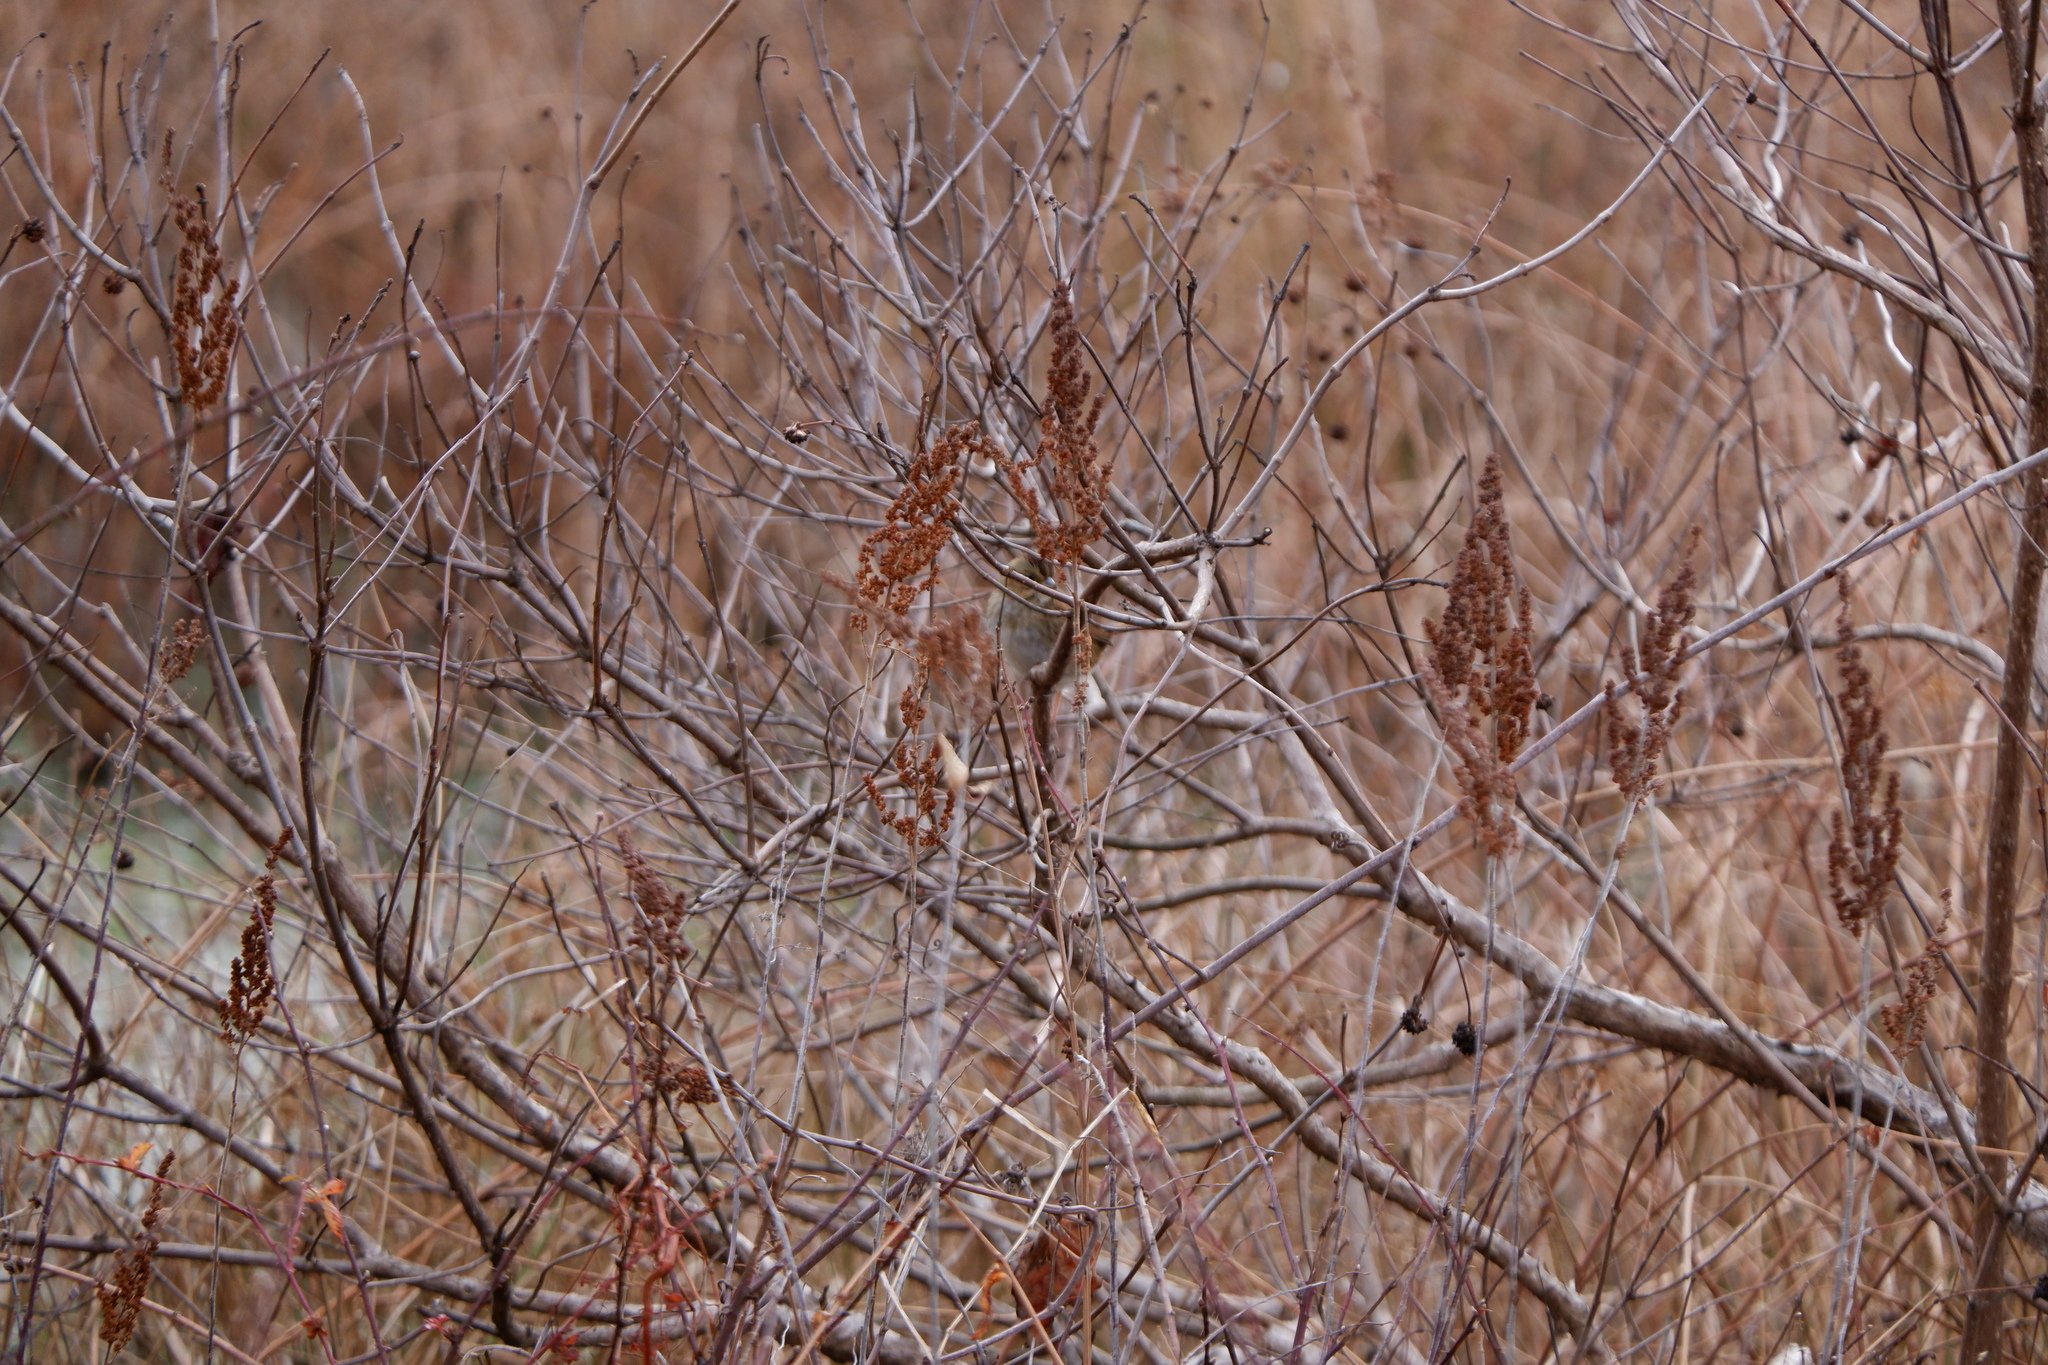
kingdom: Animalia
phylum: Chordata
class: Aves
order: Passeriformes
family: Passerellidae
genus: Melospiza
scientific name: Melospiza georgiana
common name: Swamp sparrow
